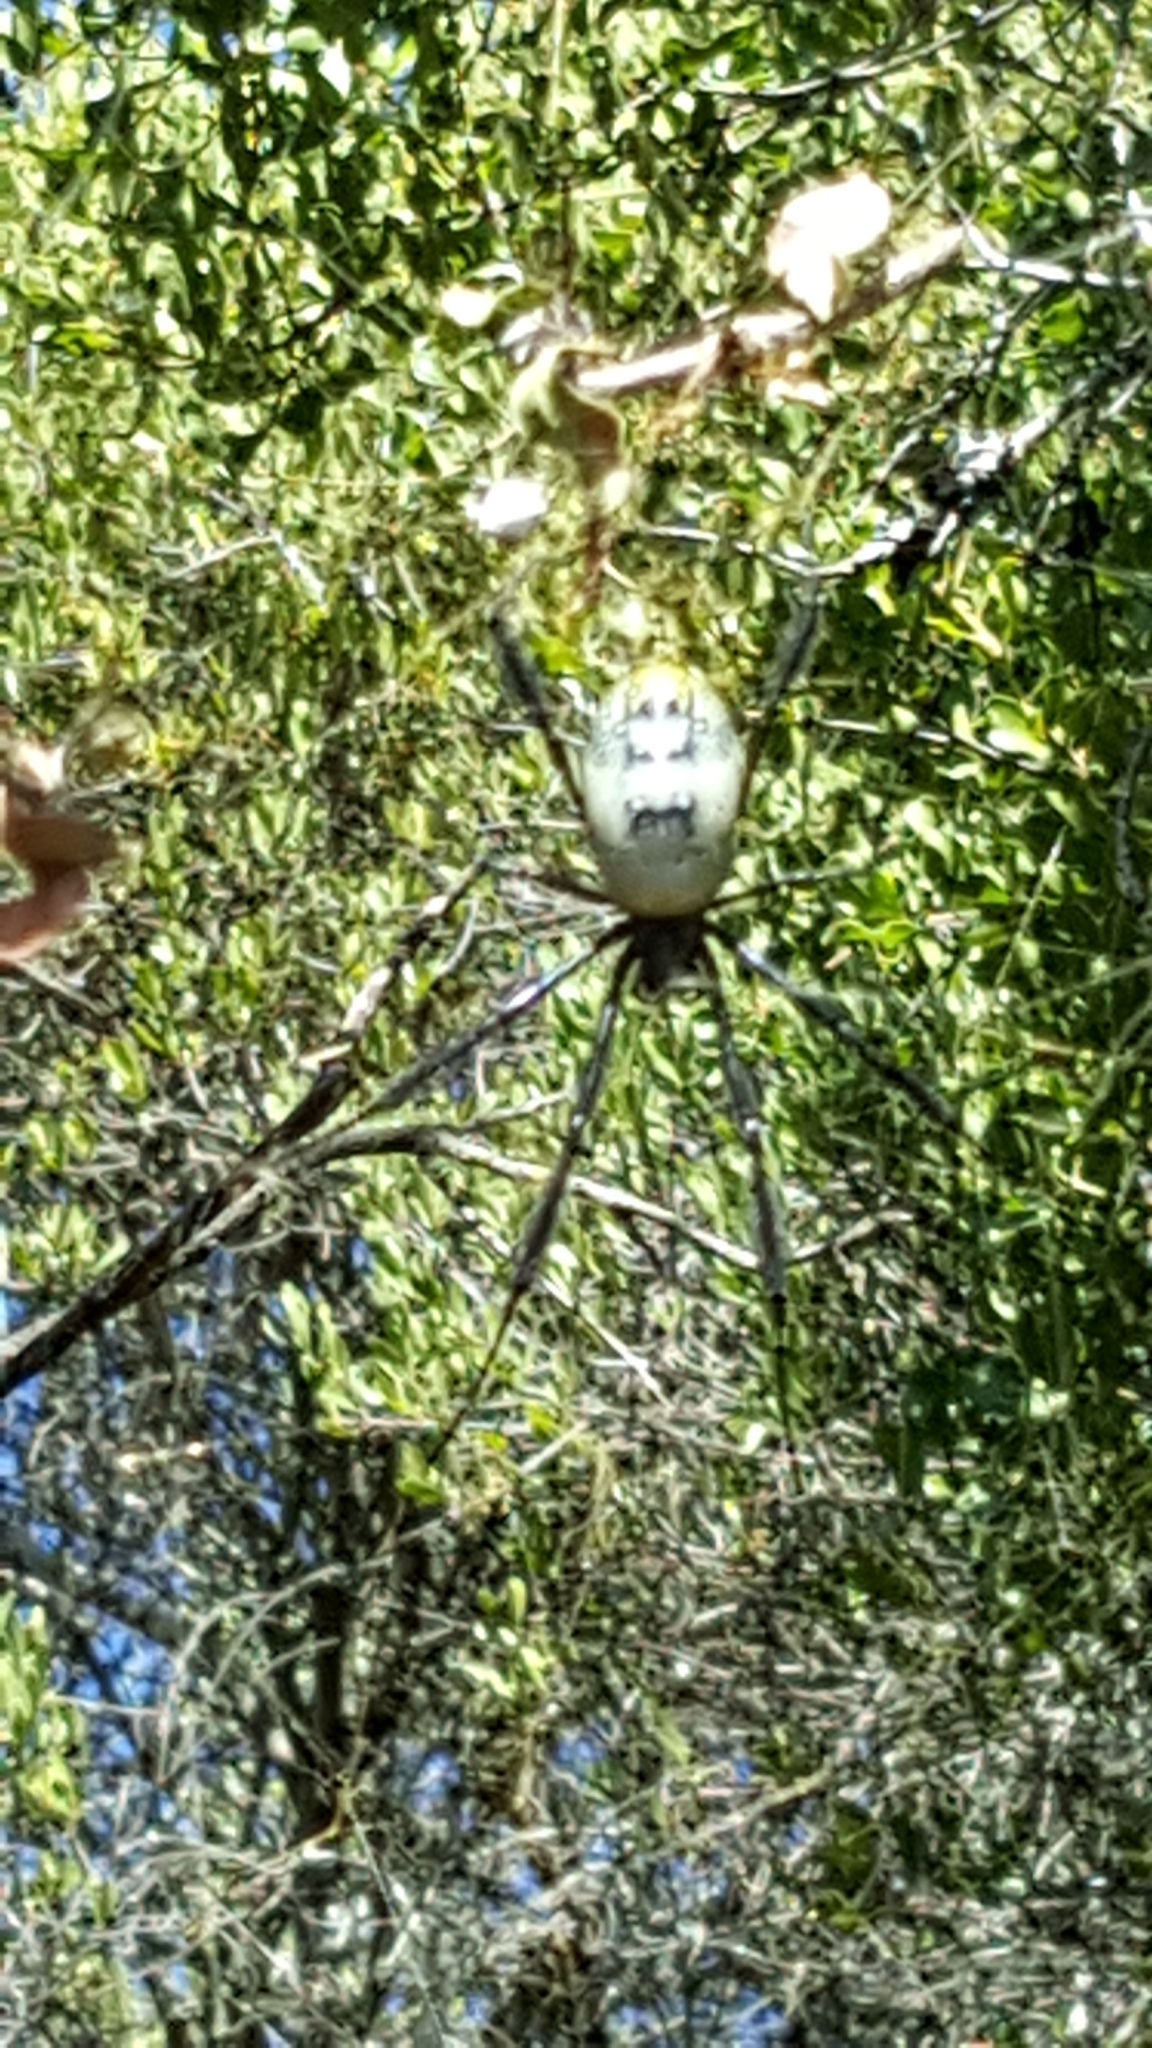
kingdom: Animalia
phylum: Arthropoda
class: Arachnida
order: Araneae
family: Araneidae
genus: Trichonephila
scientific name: Trichonephila fenestrata
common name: Hairy golden orb weaver
